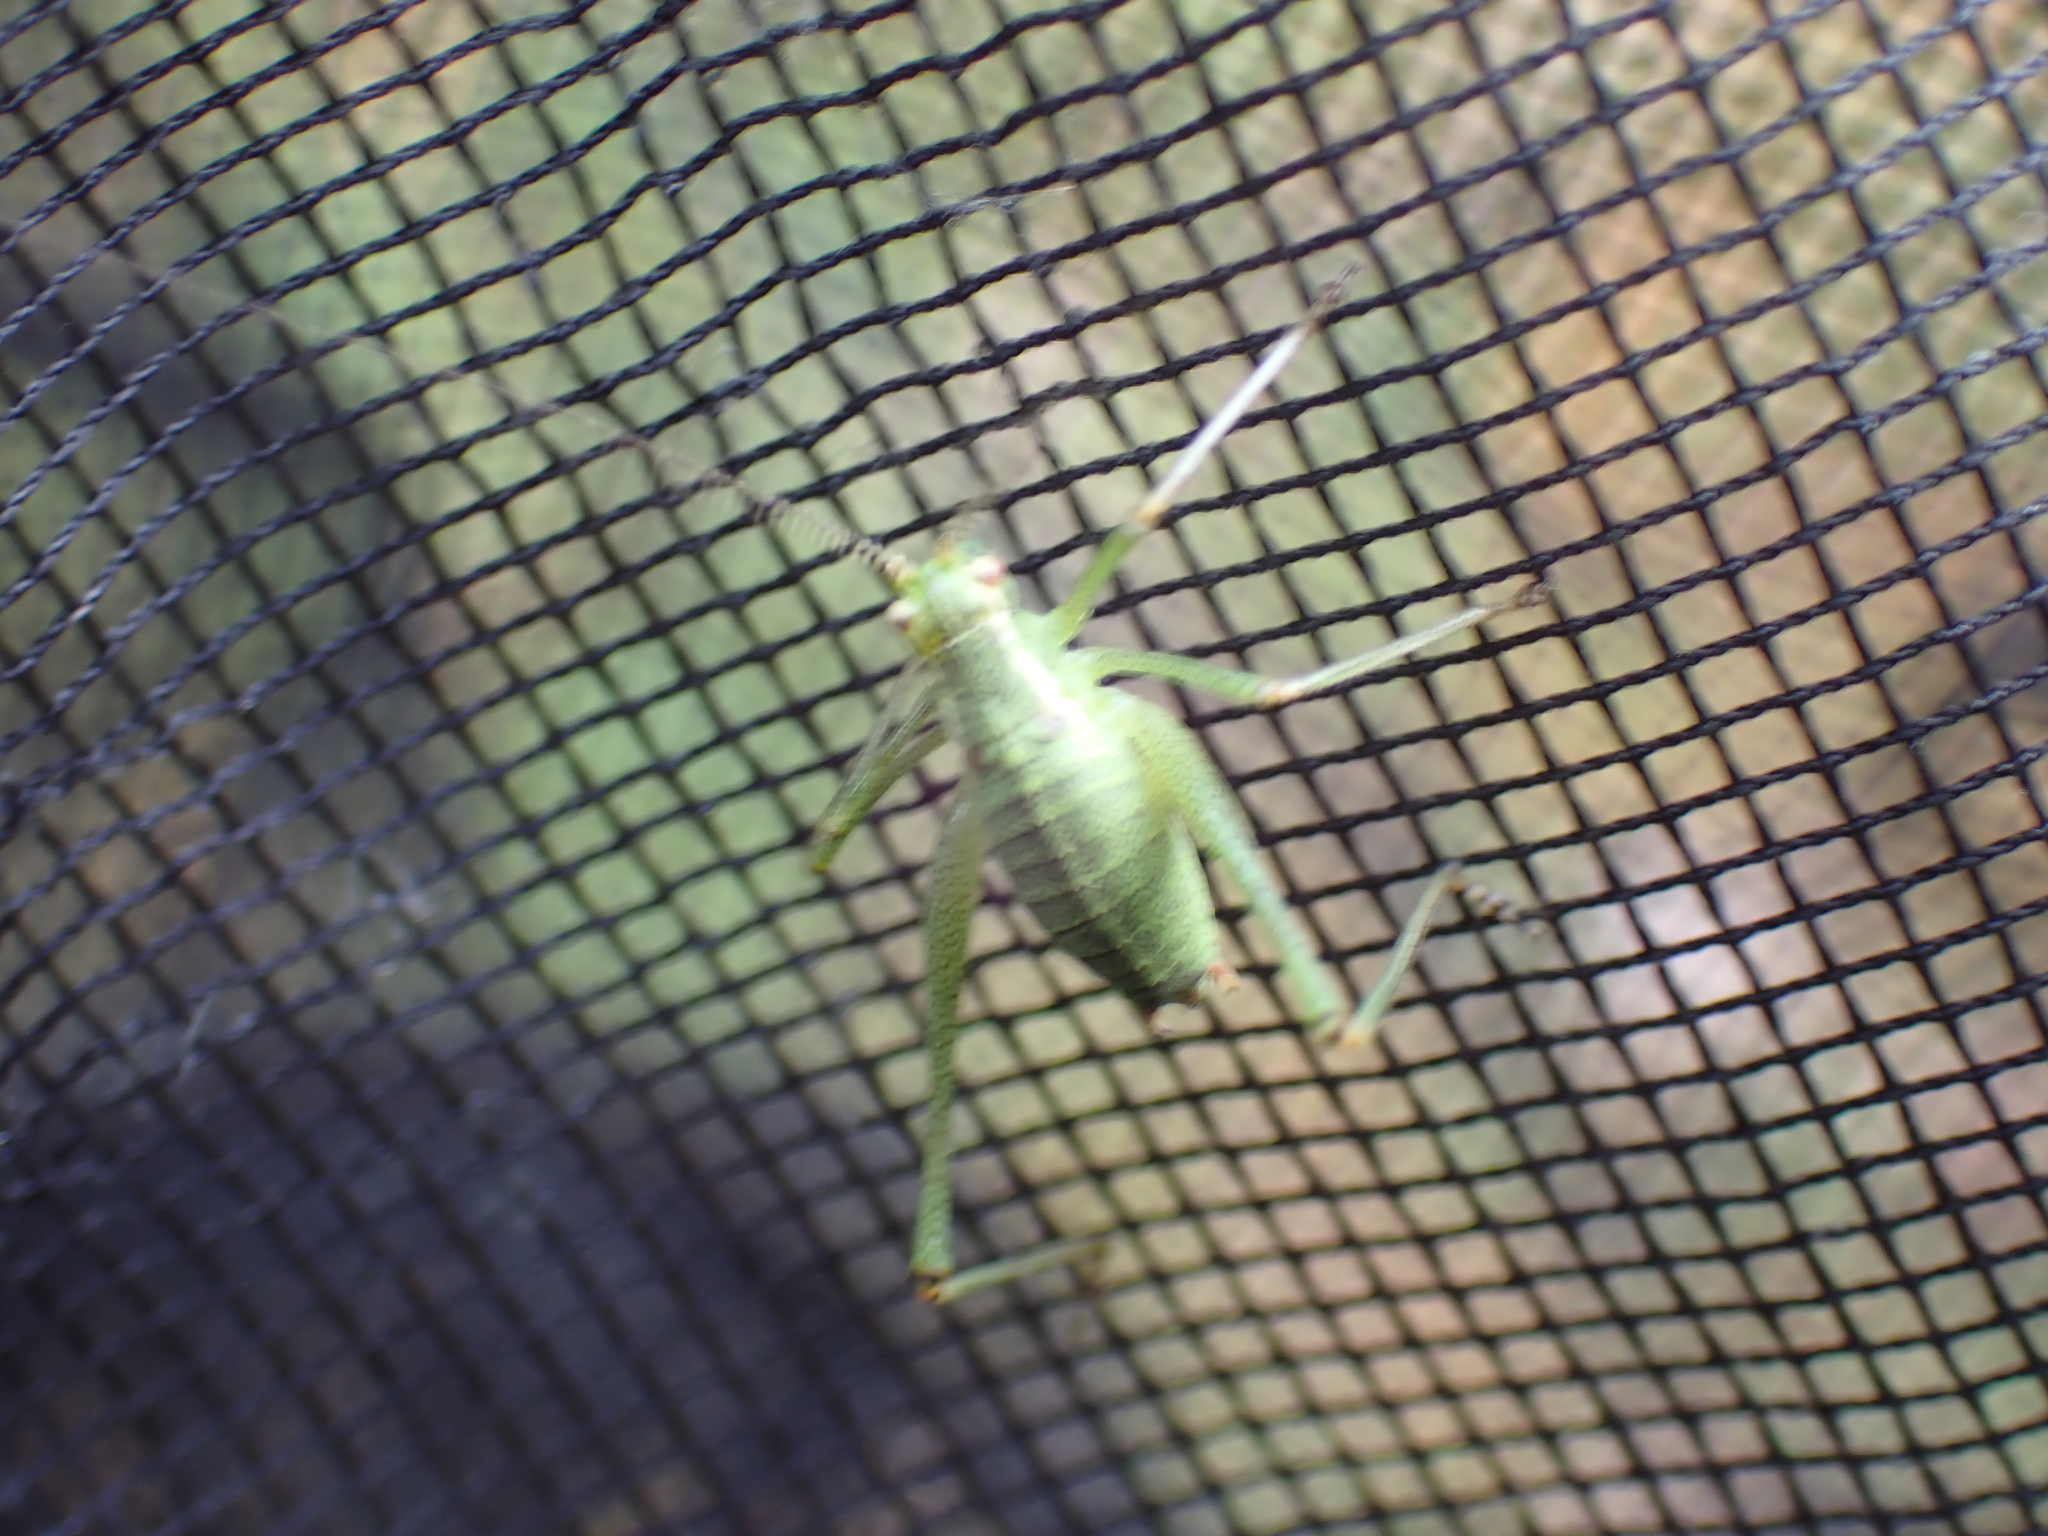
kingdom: Animalia
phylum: Arthropoda
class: Insecta
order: Orthoptera
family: Tettigoniidae
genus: Leptophyes
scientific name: Leptophyes punctatissima
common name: Speckled bush-cricket
